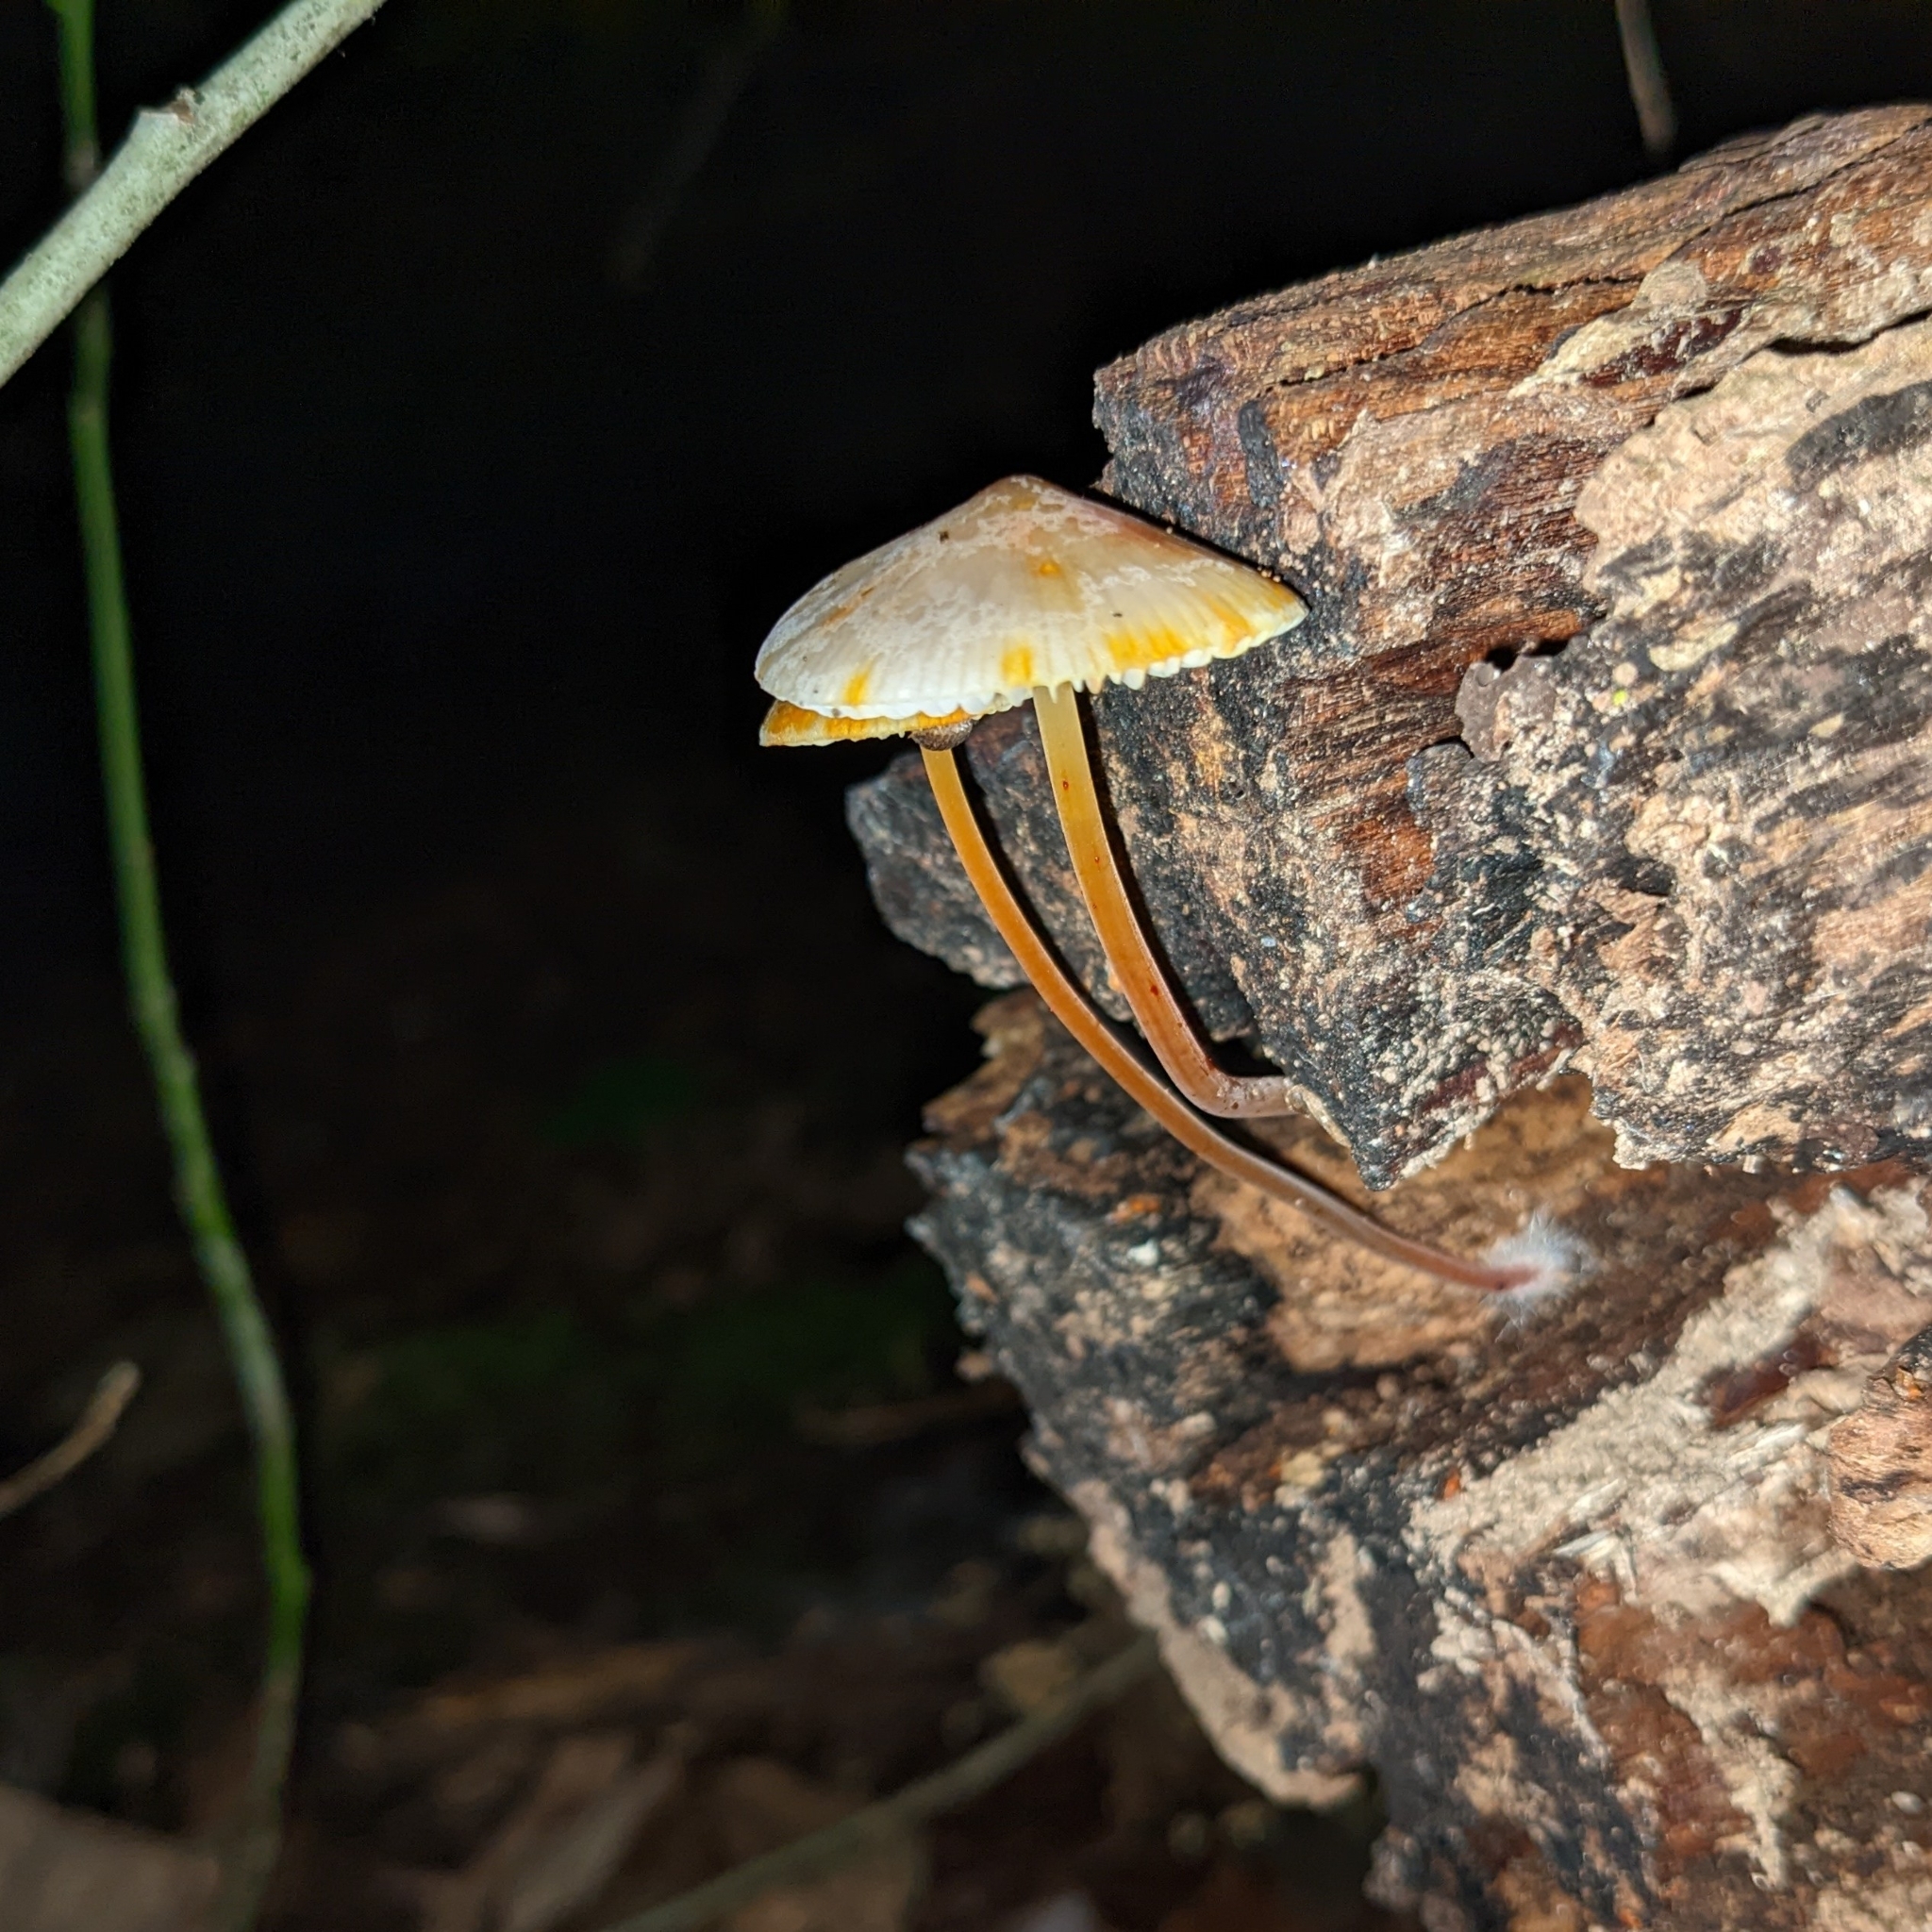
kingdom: Fungi
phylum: Basidiomycota
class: Agaricomycetes
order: Agaricales
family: Mycenaceae
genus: Mycena
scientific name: Mycena crocata
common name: Saffrondrop bonnet
